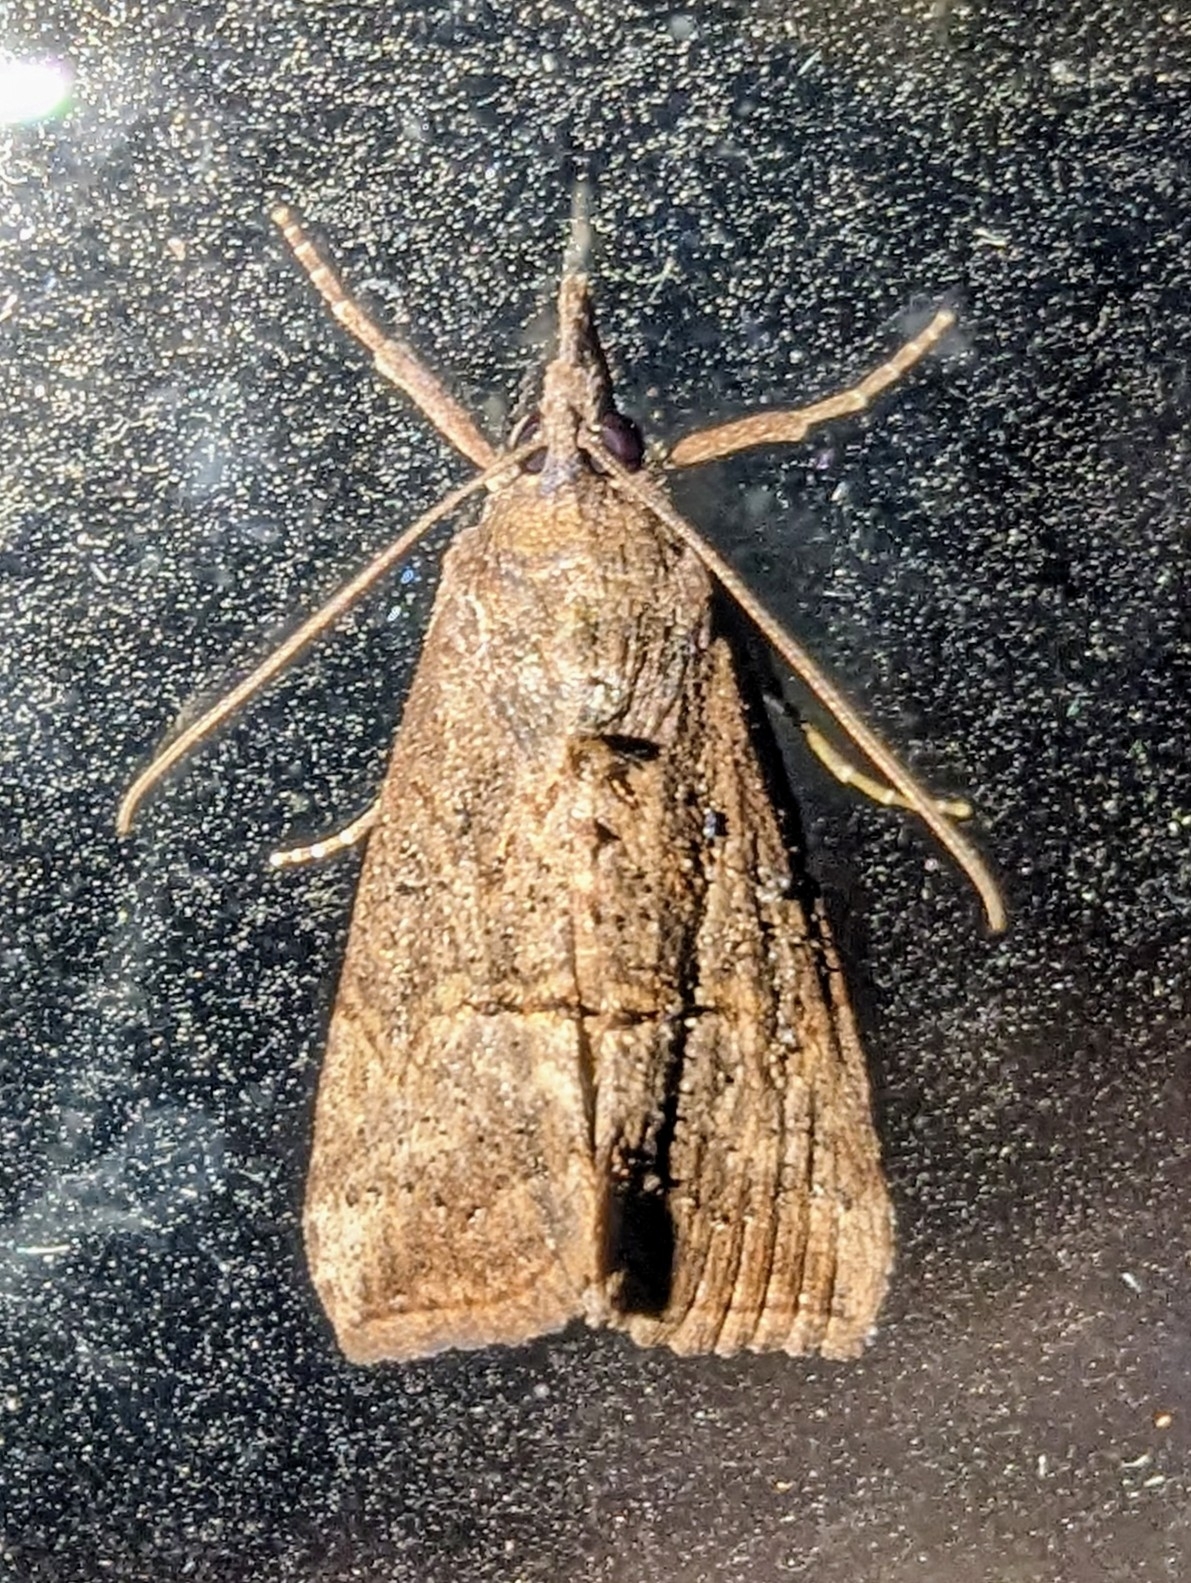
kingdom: Animalia
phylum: Arthropoda
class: Insecta
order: Lepidoptera
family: Erebidae
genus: Hypena
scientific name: Hypena scabra
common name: Green cloverworm
